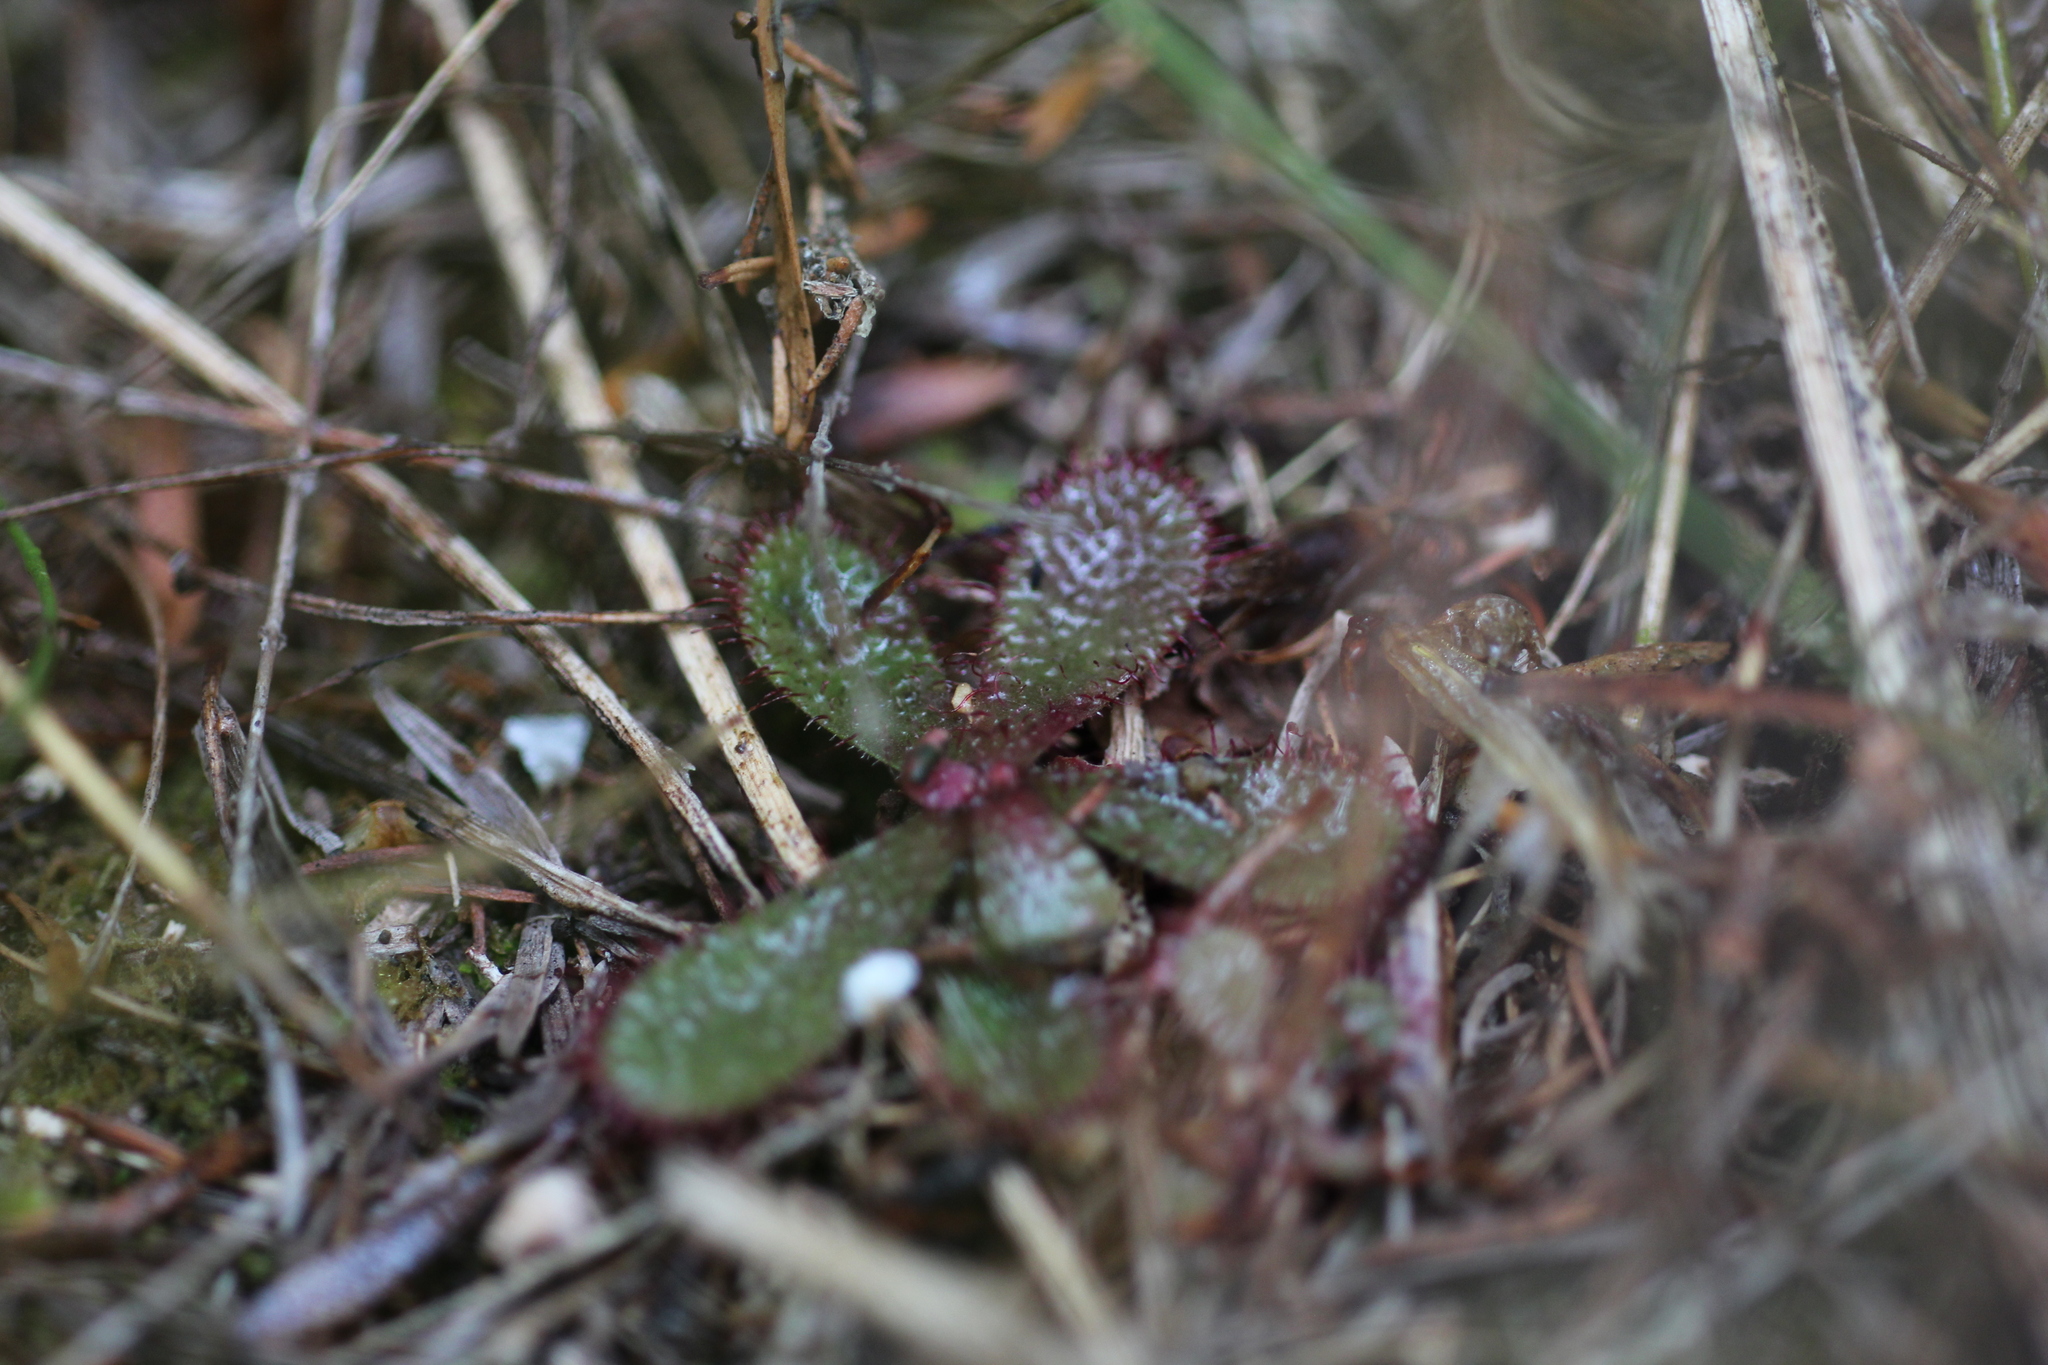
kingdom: Plantae
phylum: Tracheophyta
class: Magnoliopsida
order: Caryophyllales
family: Droseraceae
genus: Drosera
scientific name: Drosera hamiltonii
